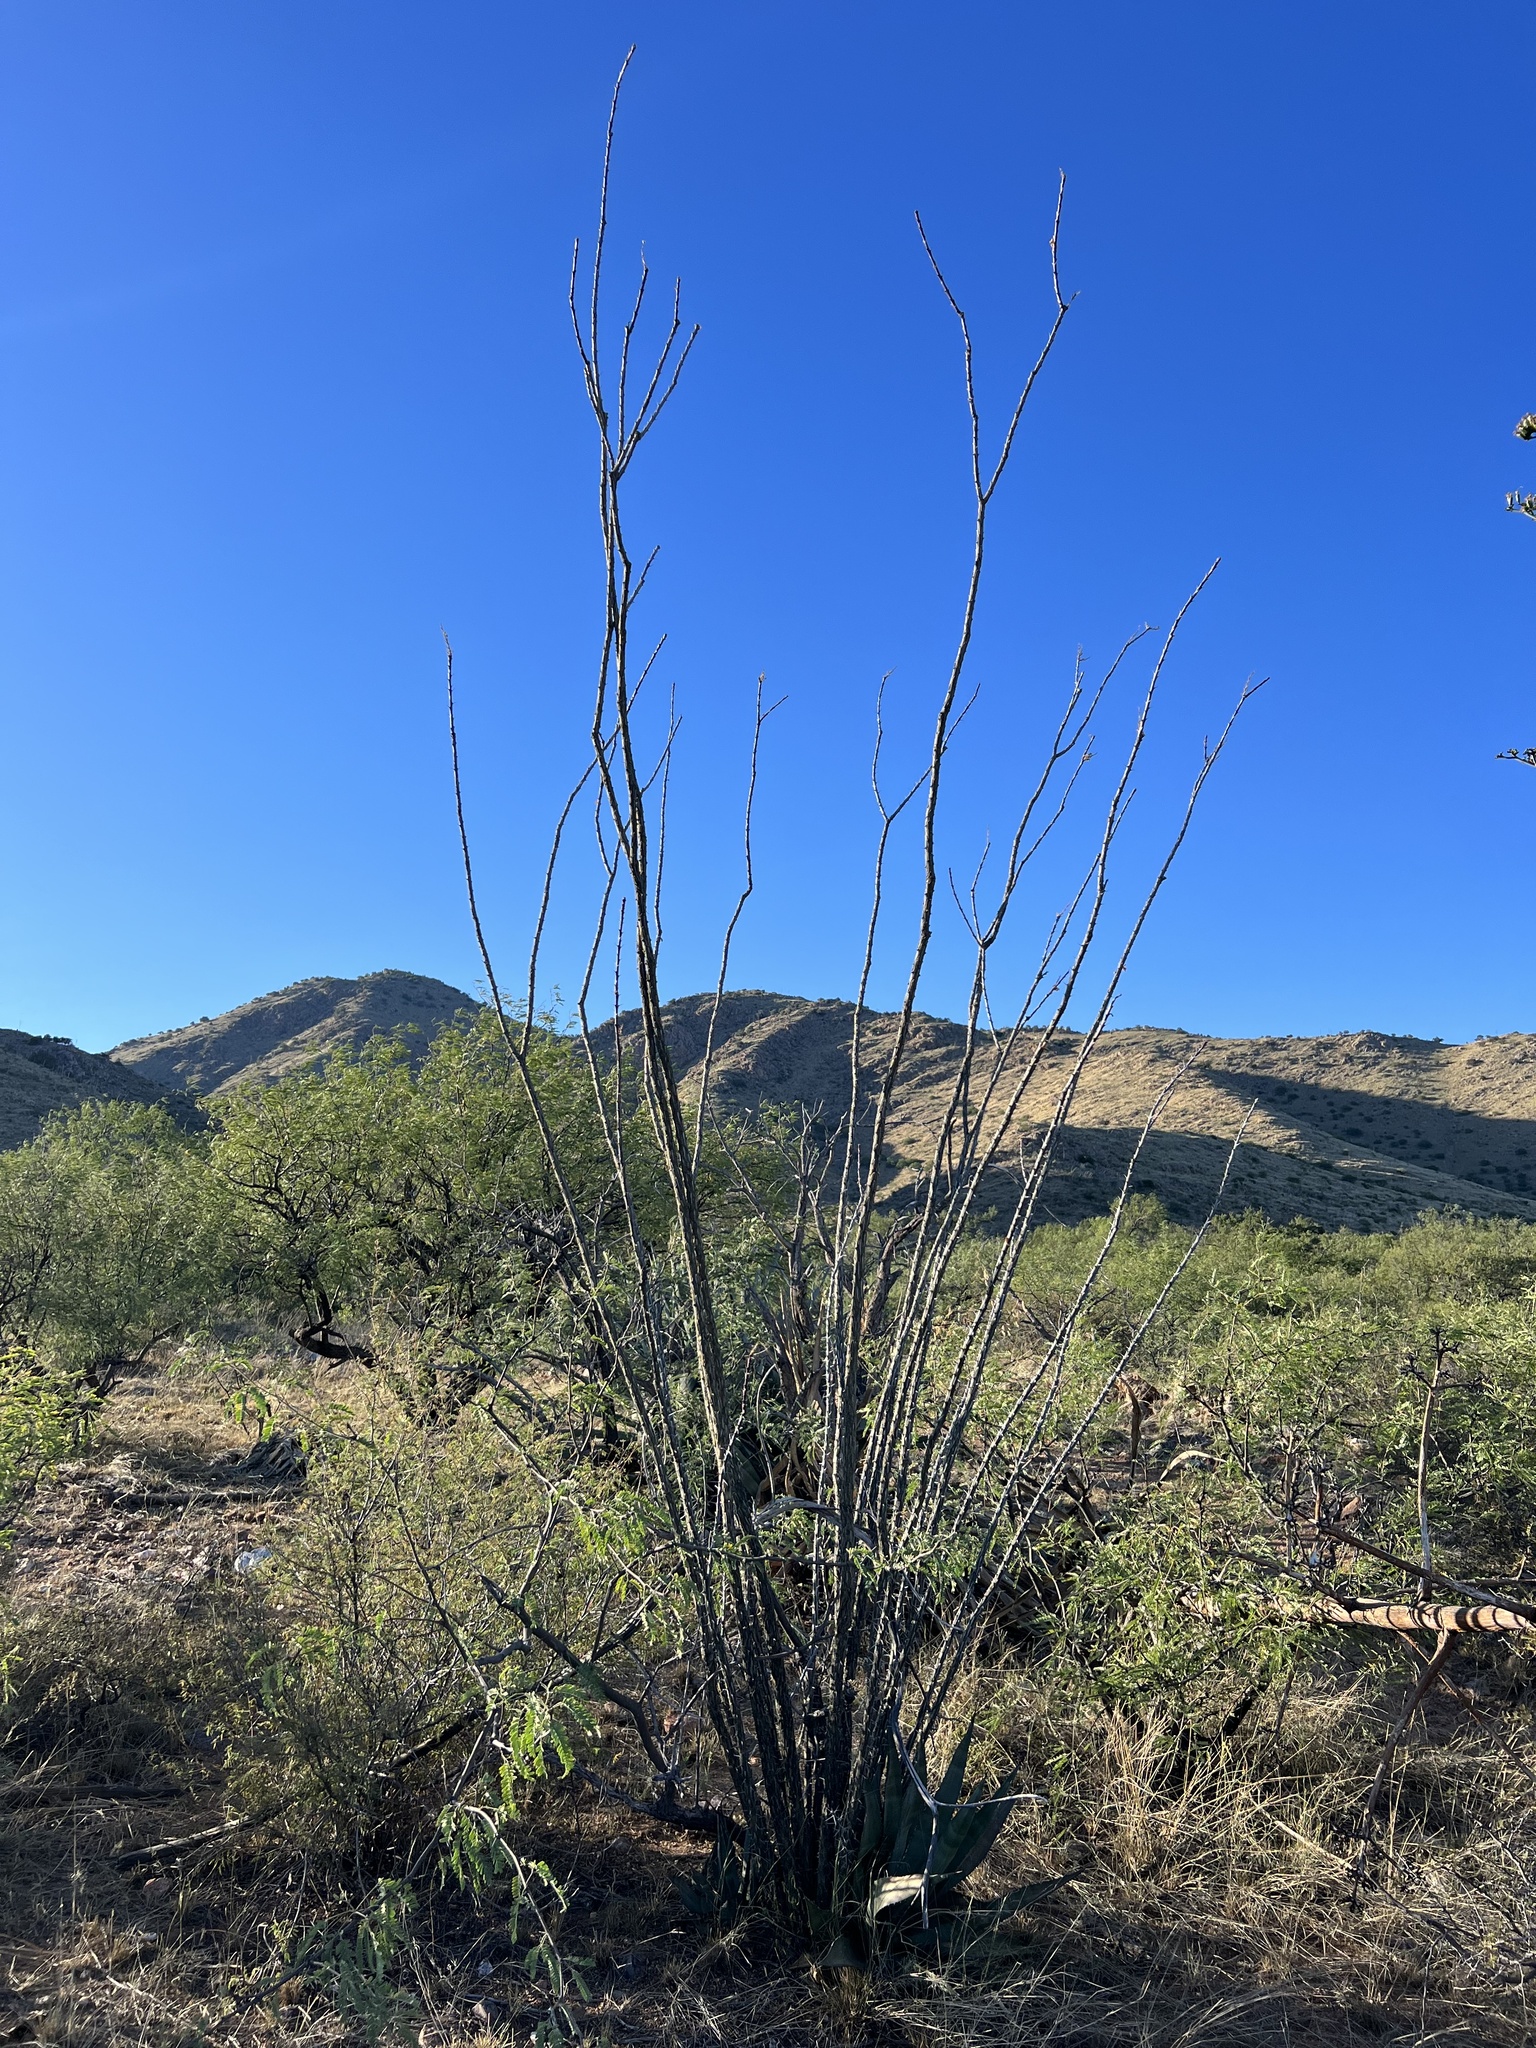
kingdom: Plantae
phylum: Tracheophyta
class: Magnoliopsida
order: Ericales
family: Fouquieriaceae
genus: Fouquieria
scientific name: Fouquieria splendens
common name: Vine-cactus
